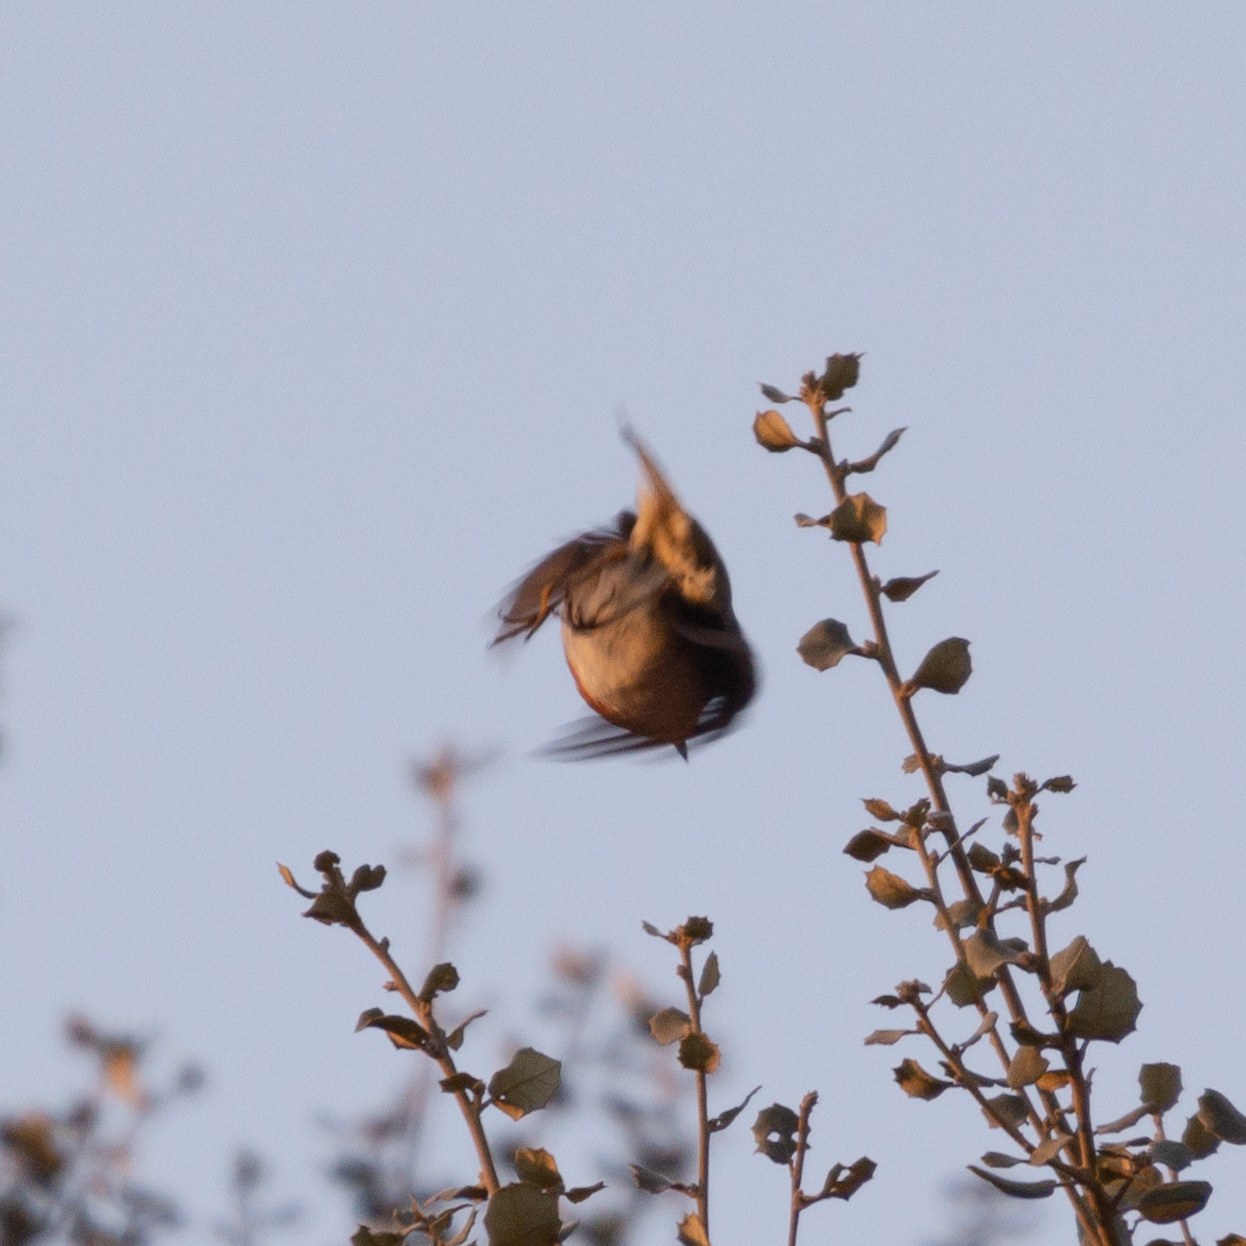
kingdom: Animalia
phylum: Chordata
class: Aves
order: Passeriformes
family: Muscicapidae
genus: Erithacus
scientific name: Erithacus rubecula
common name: European robin
